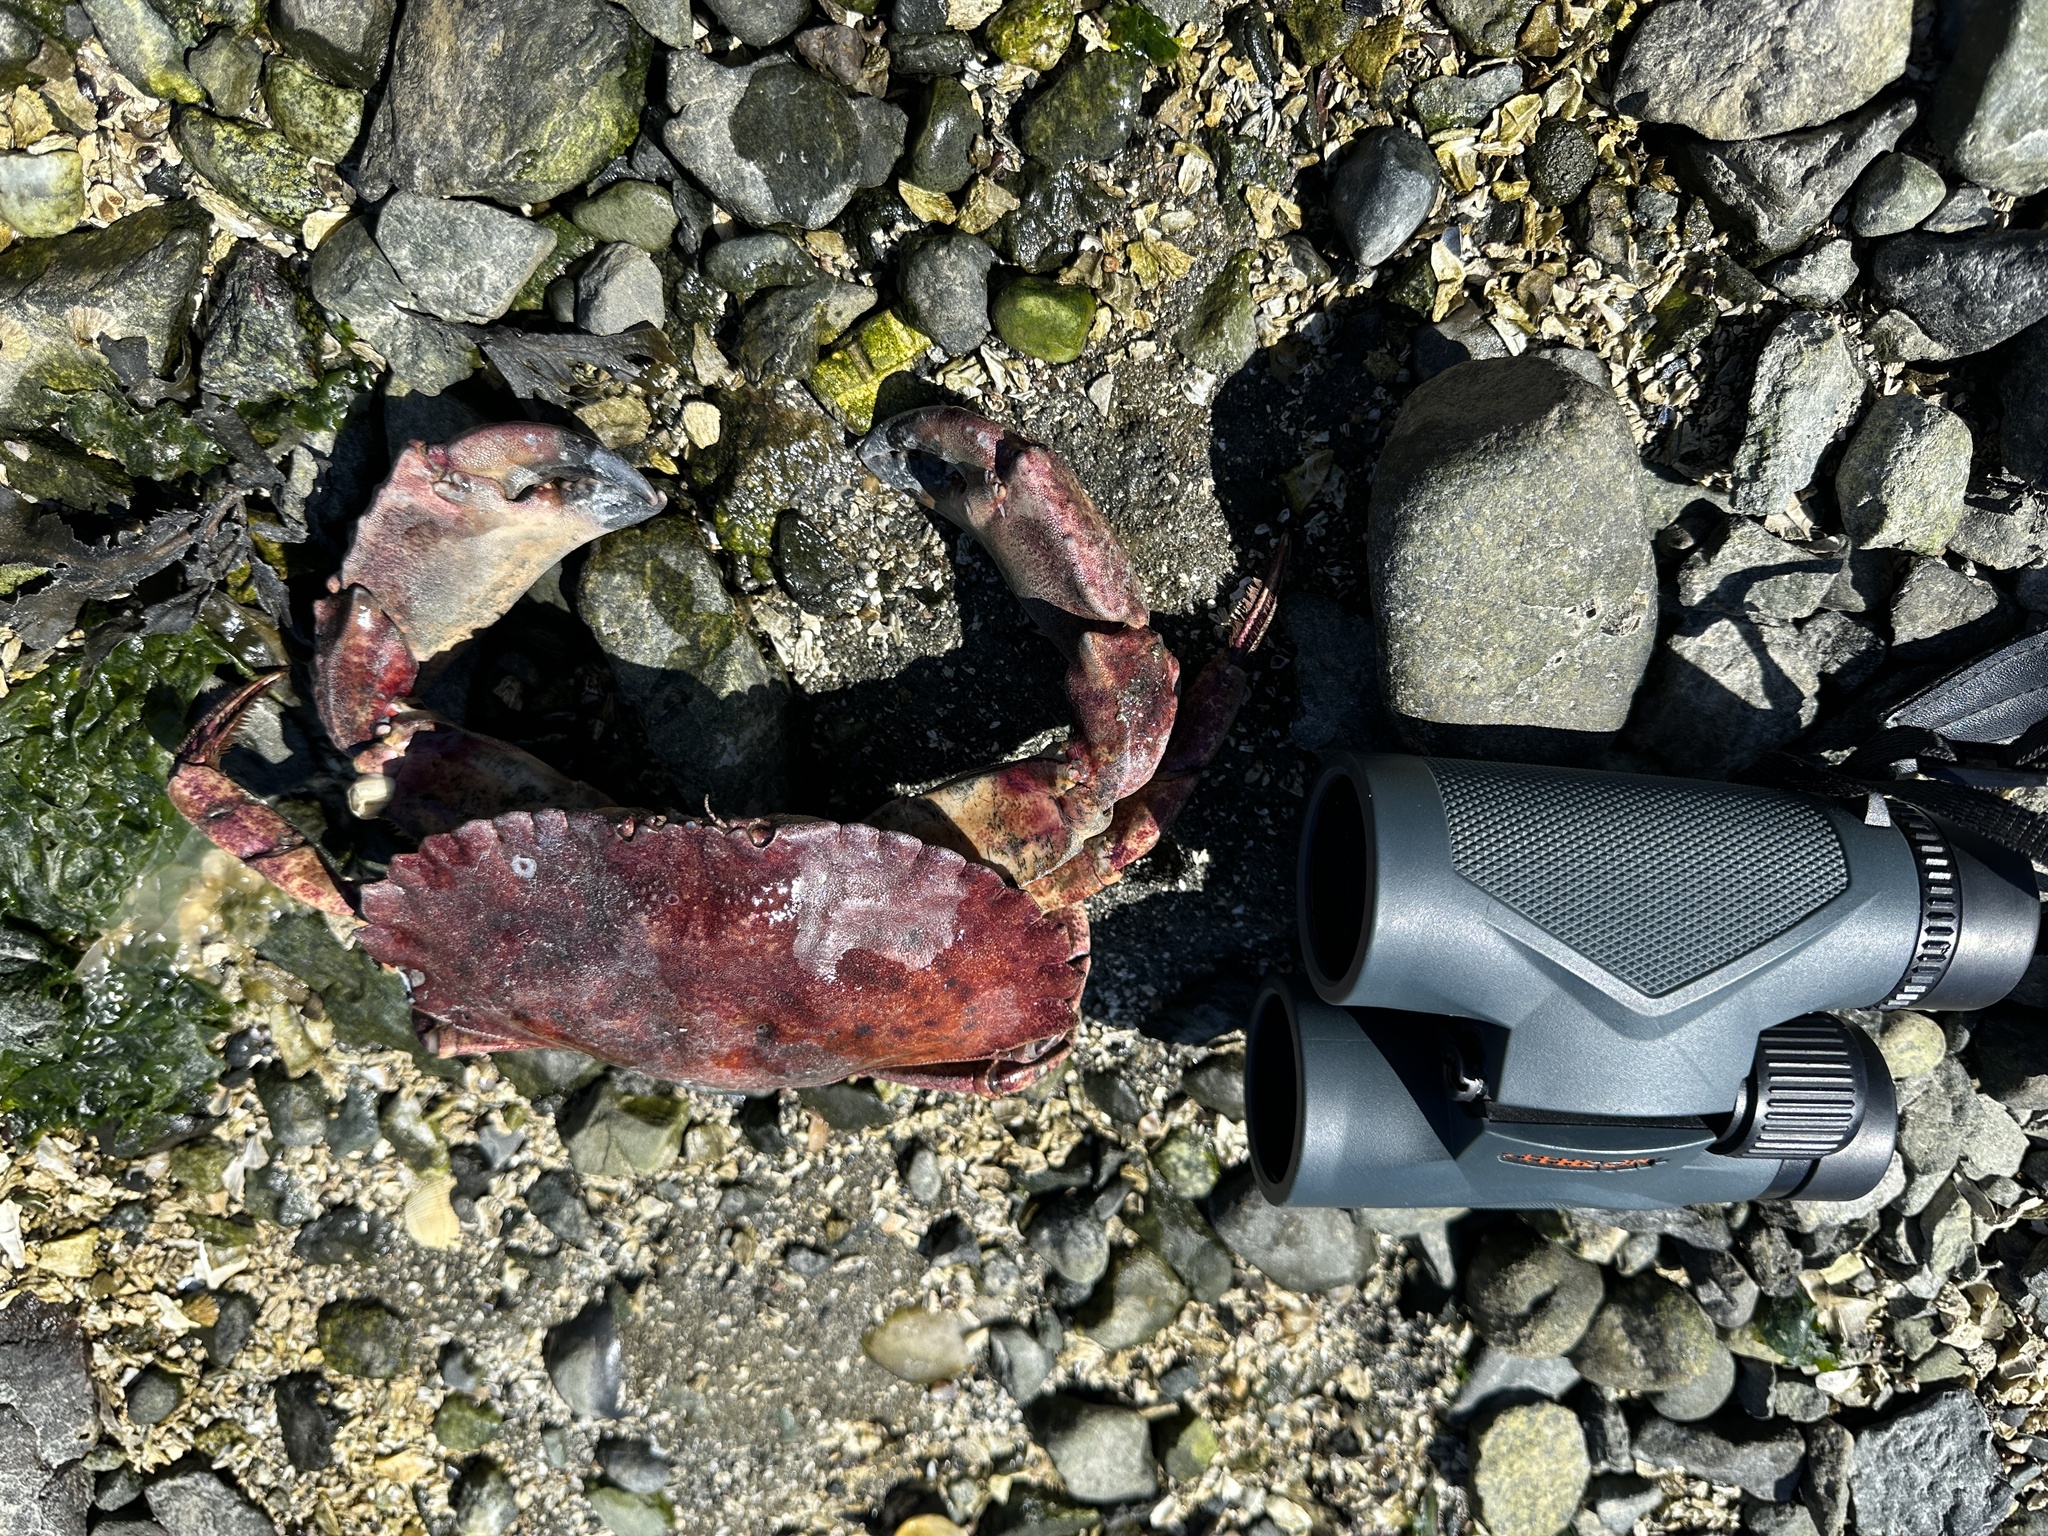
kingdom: Animalia
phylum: Arthropoda
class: Malacostraca
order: Decapoda
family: Cancridae
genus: Cancer
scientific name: Cancer productus
